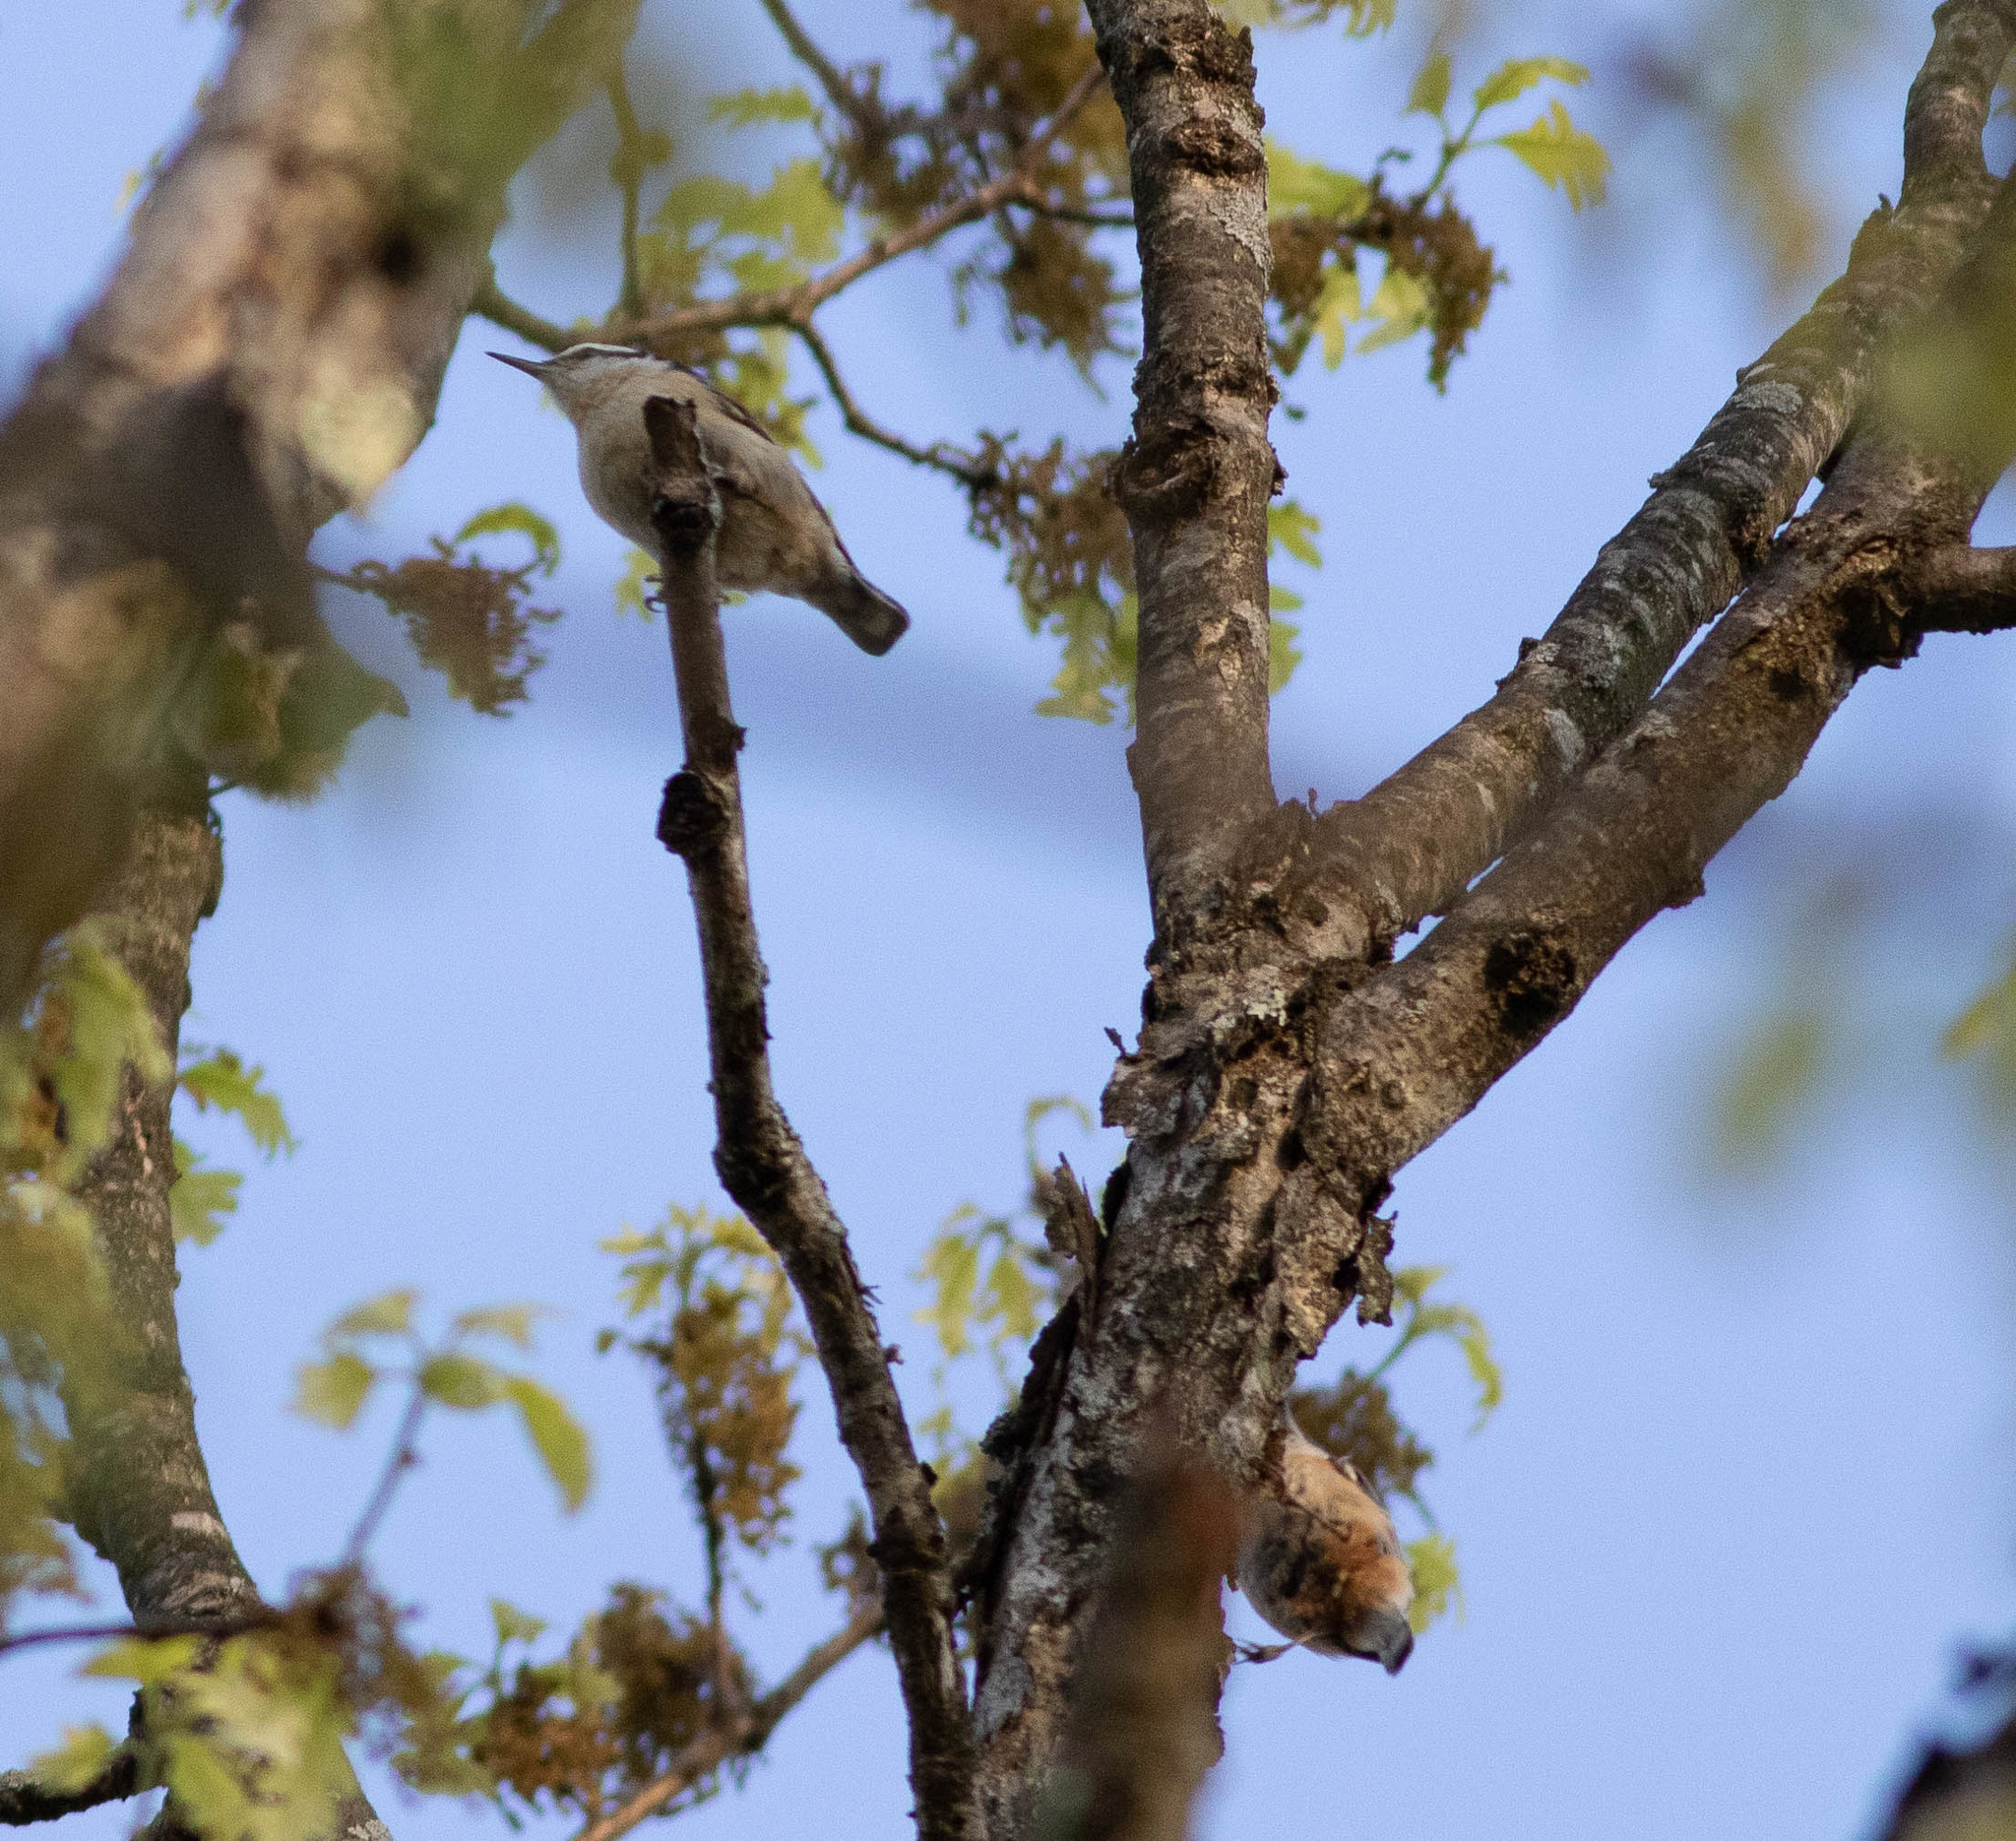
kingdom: Animalia
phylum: Chordata
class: Aves
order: Passeriformes
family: Sittidae
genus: Sitta
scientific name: Sitta canadensis
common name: Red-breasted nuthatch
